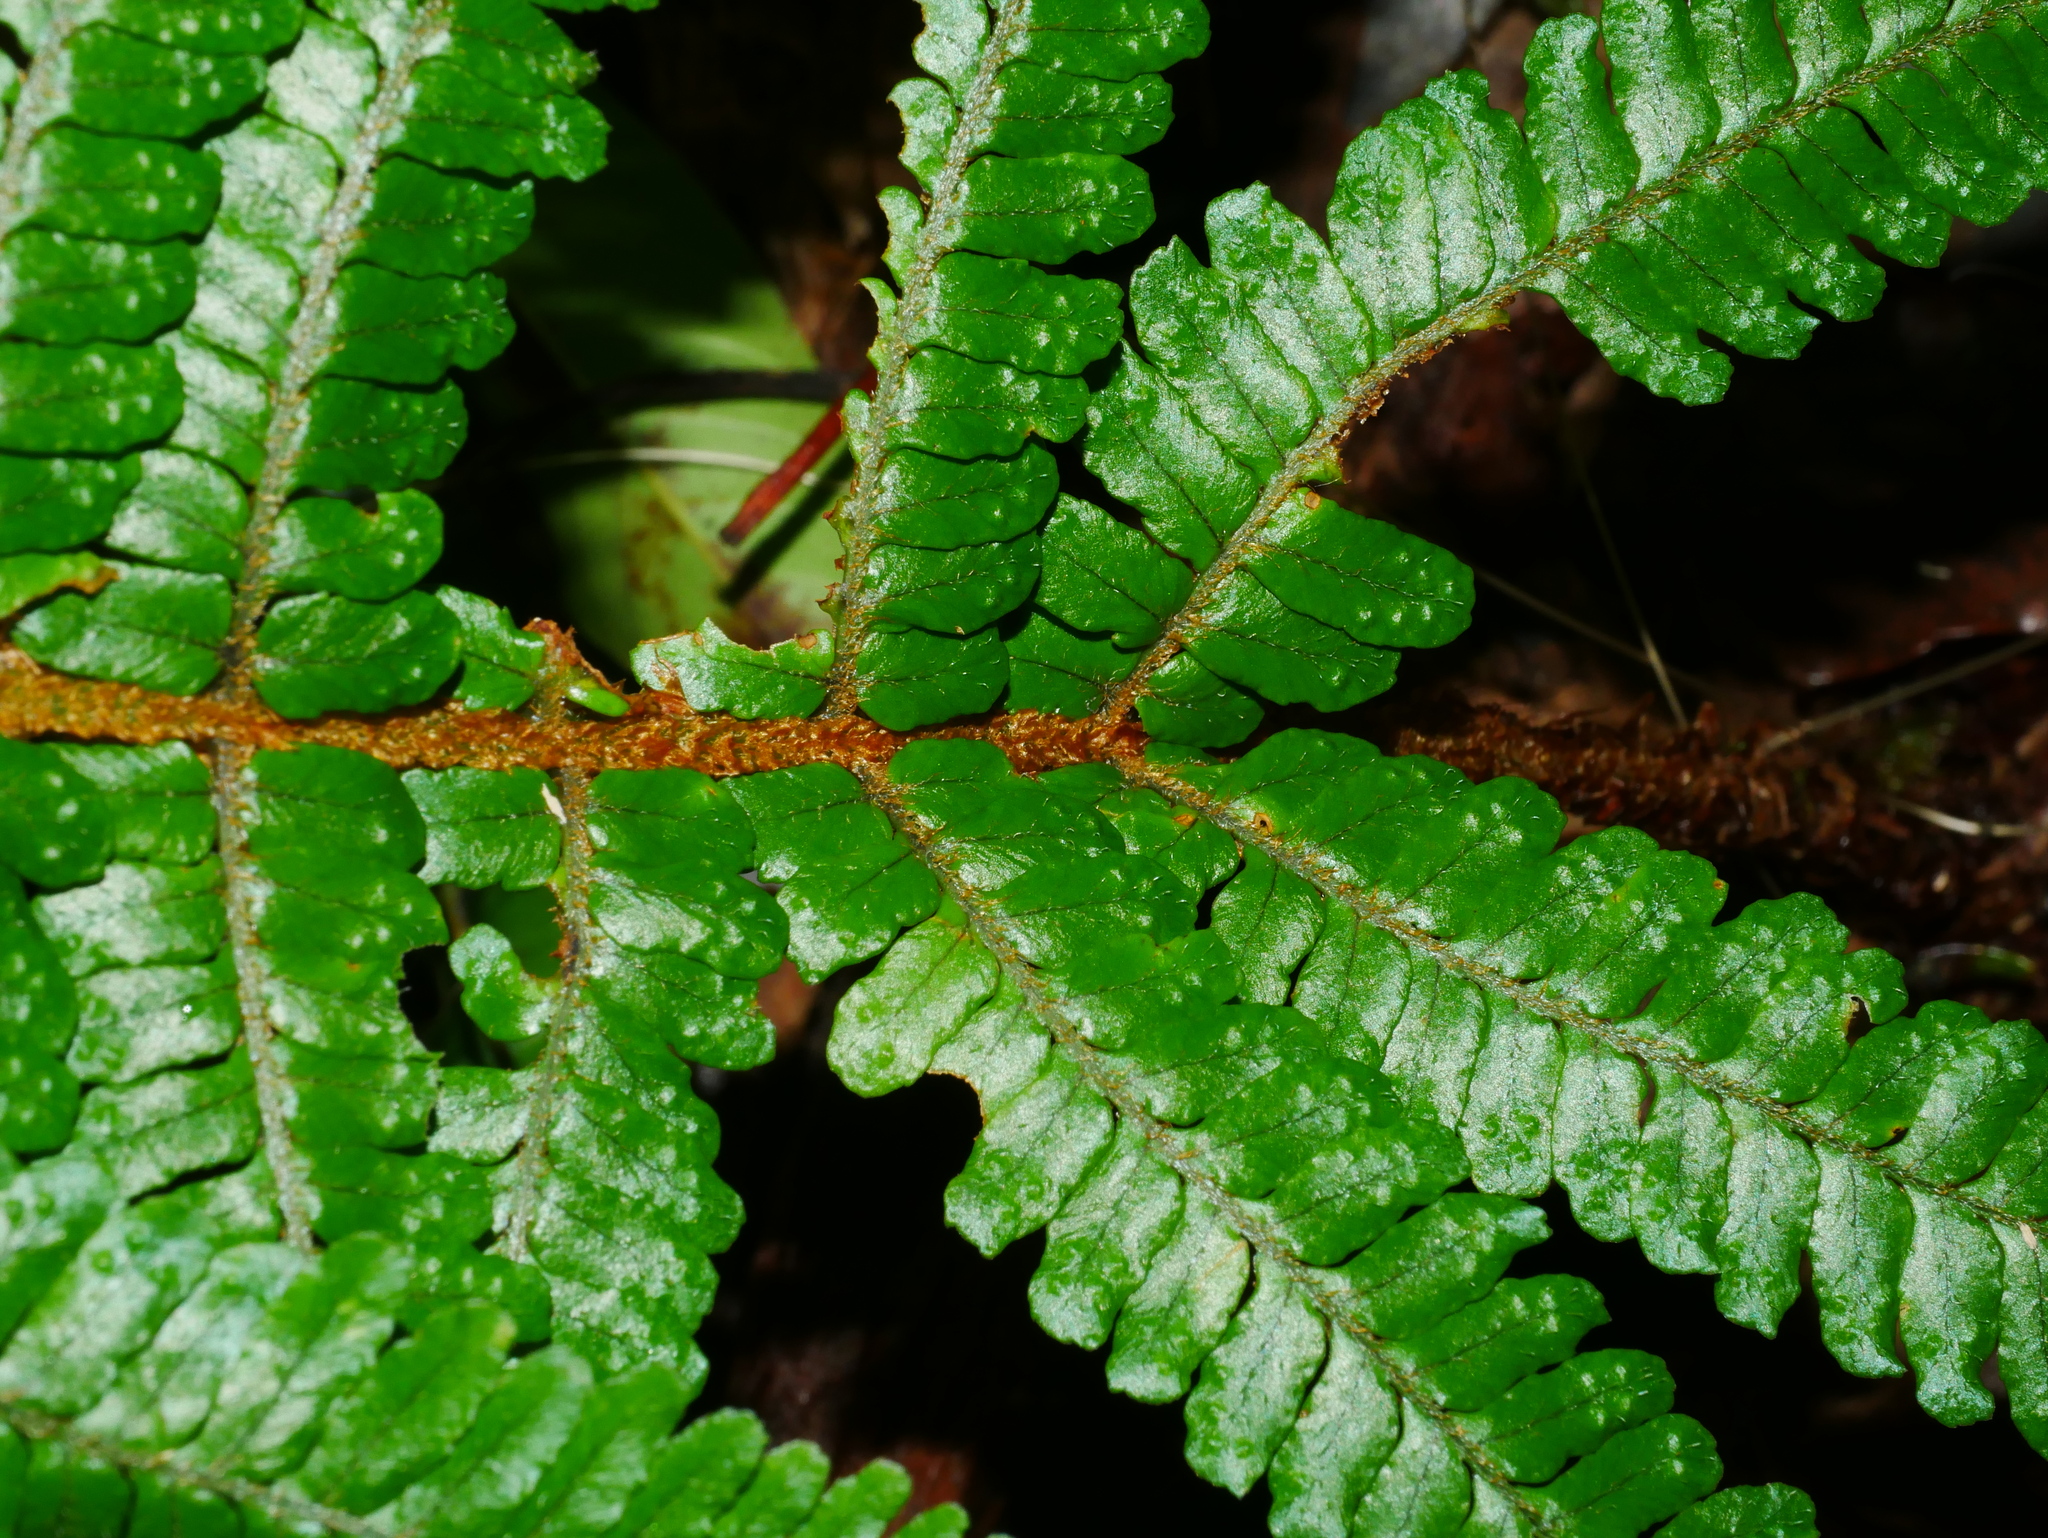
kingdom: Plantae
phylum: Tracheophyta
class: Polypodiopsida
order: Polypodiales
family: Dryopteridaceae
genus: Dryopteris
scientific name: Dryopteris apiciflora
